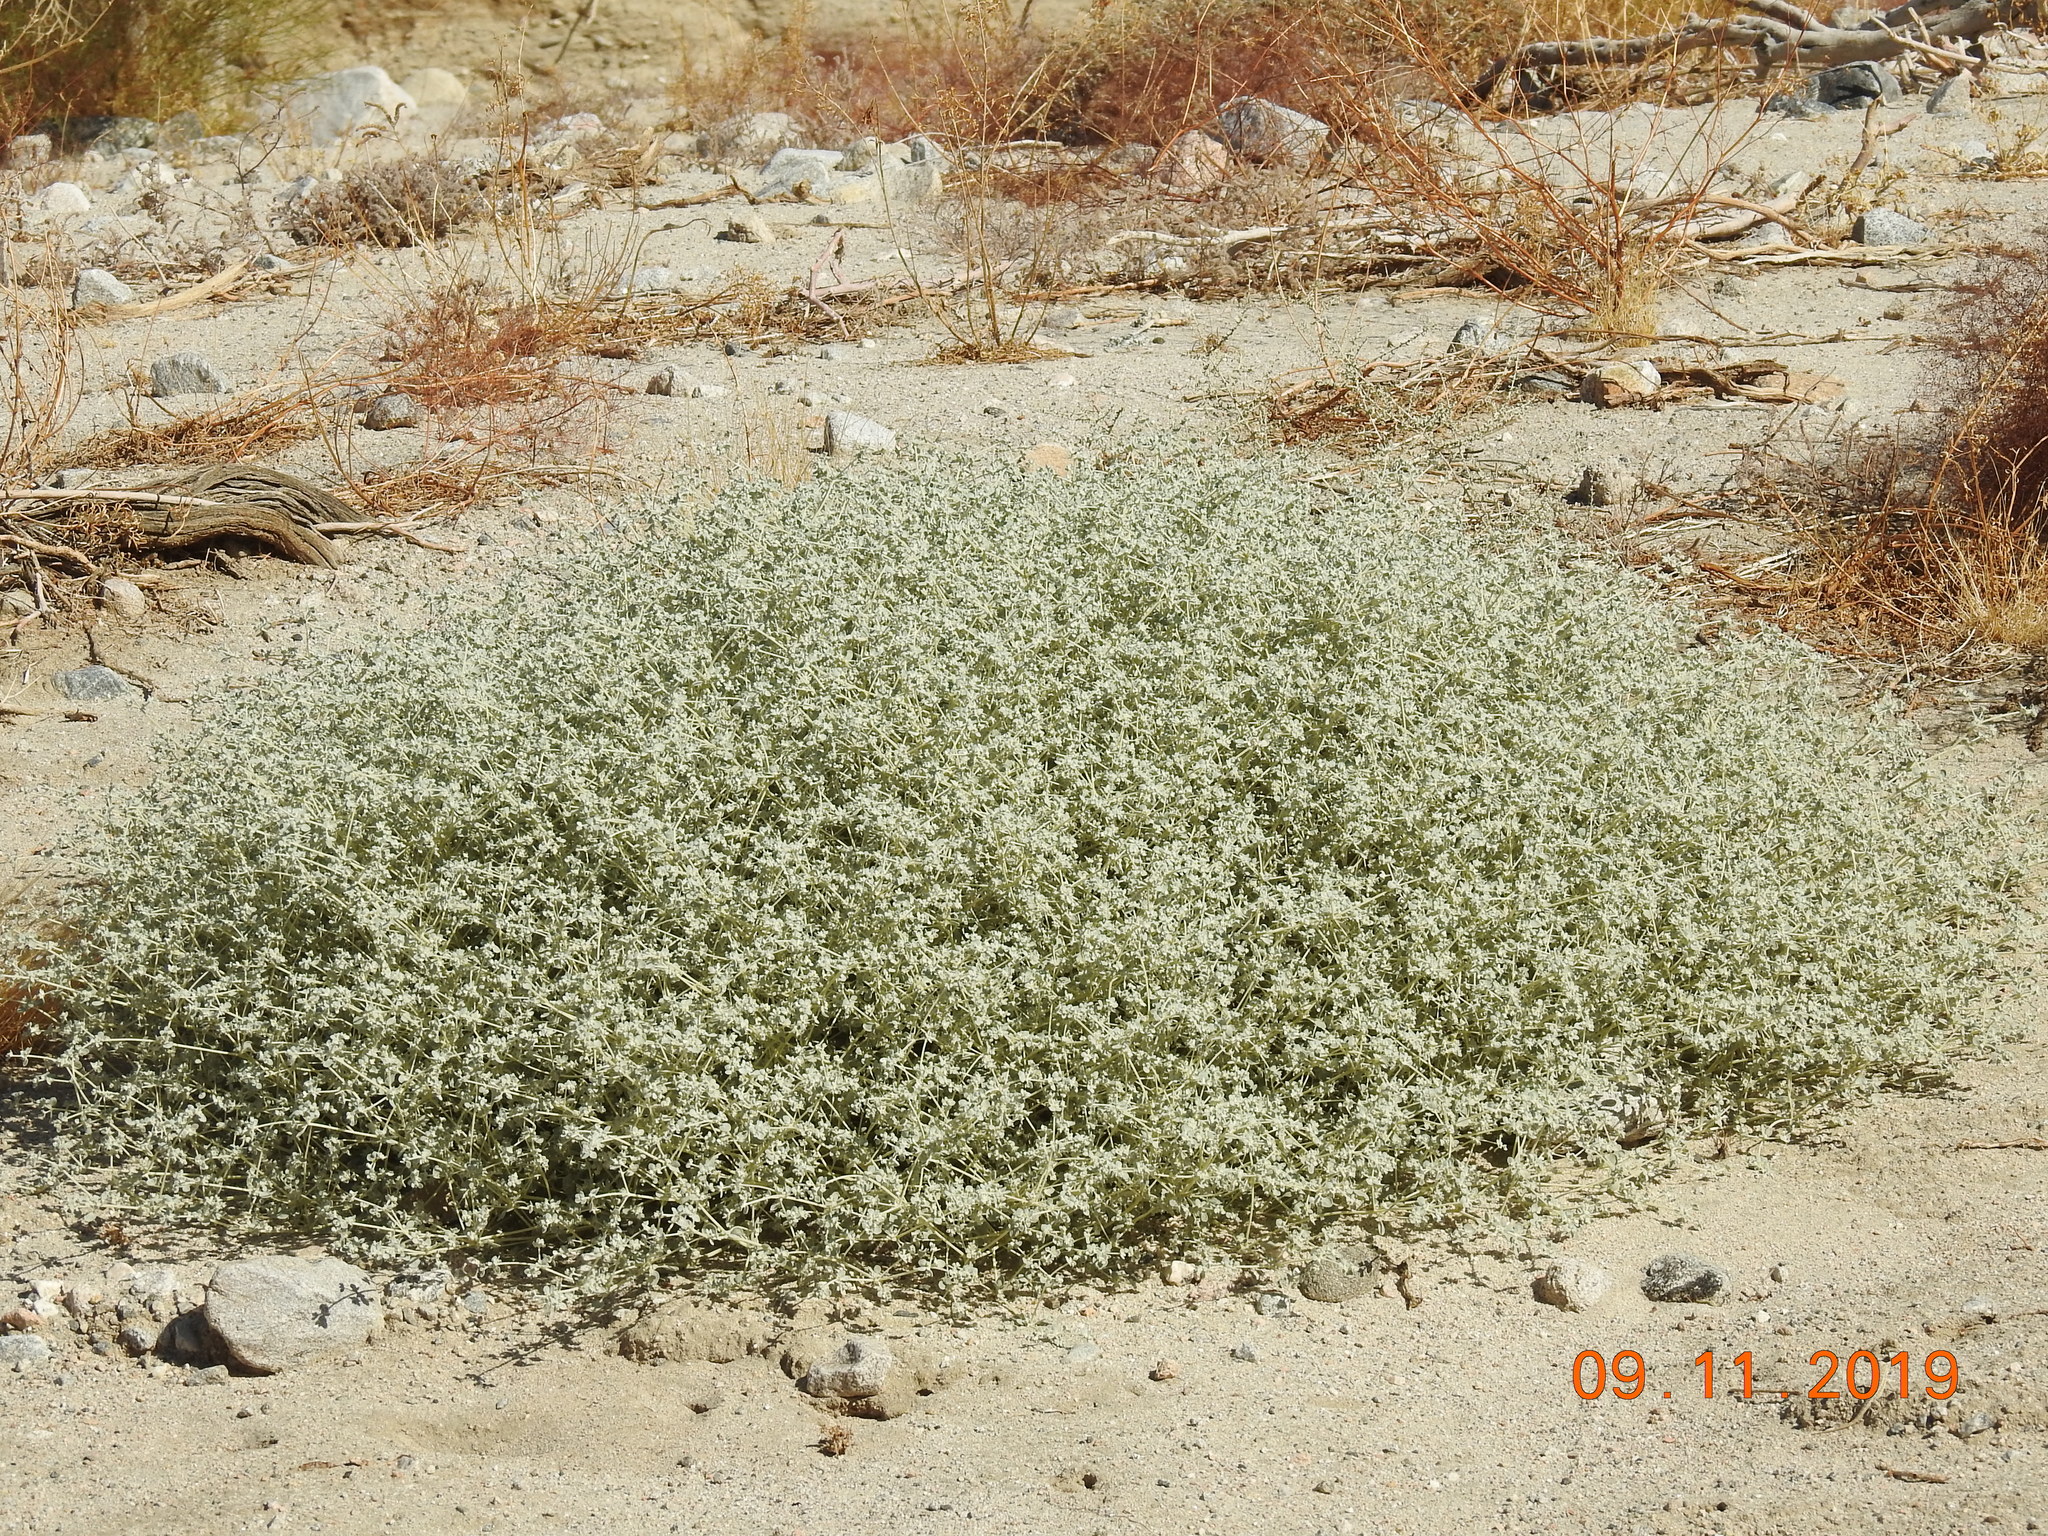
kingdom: Plantae
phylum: Tracheophyta
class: Magnoliopsida
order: Caryophyllales
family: Amaranthaceae
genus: Tidestromia
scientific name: Tidestromia suffruticosa
